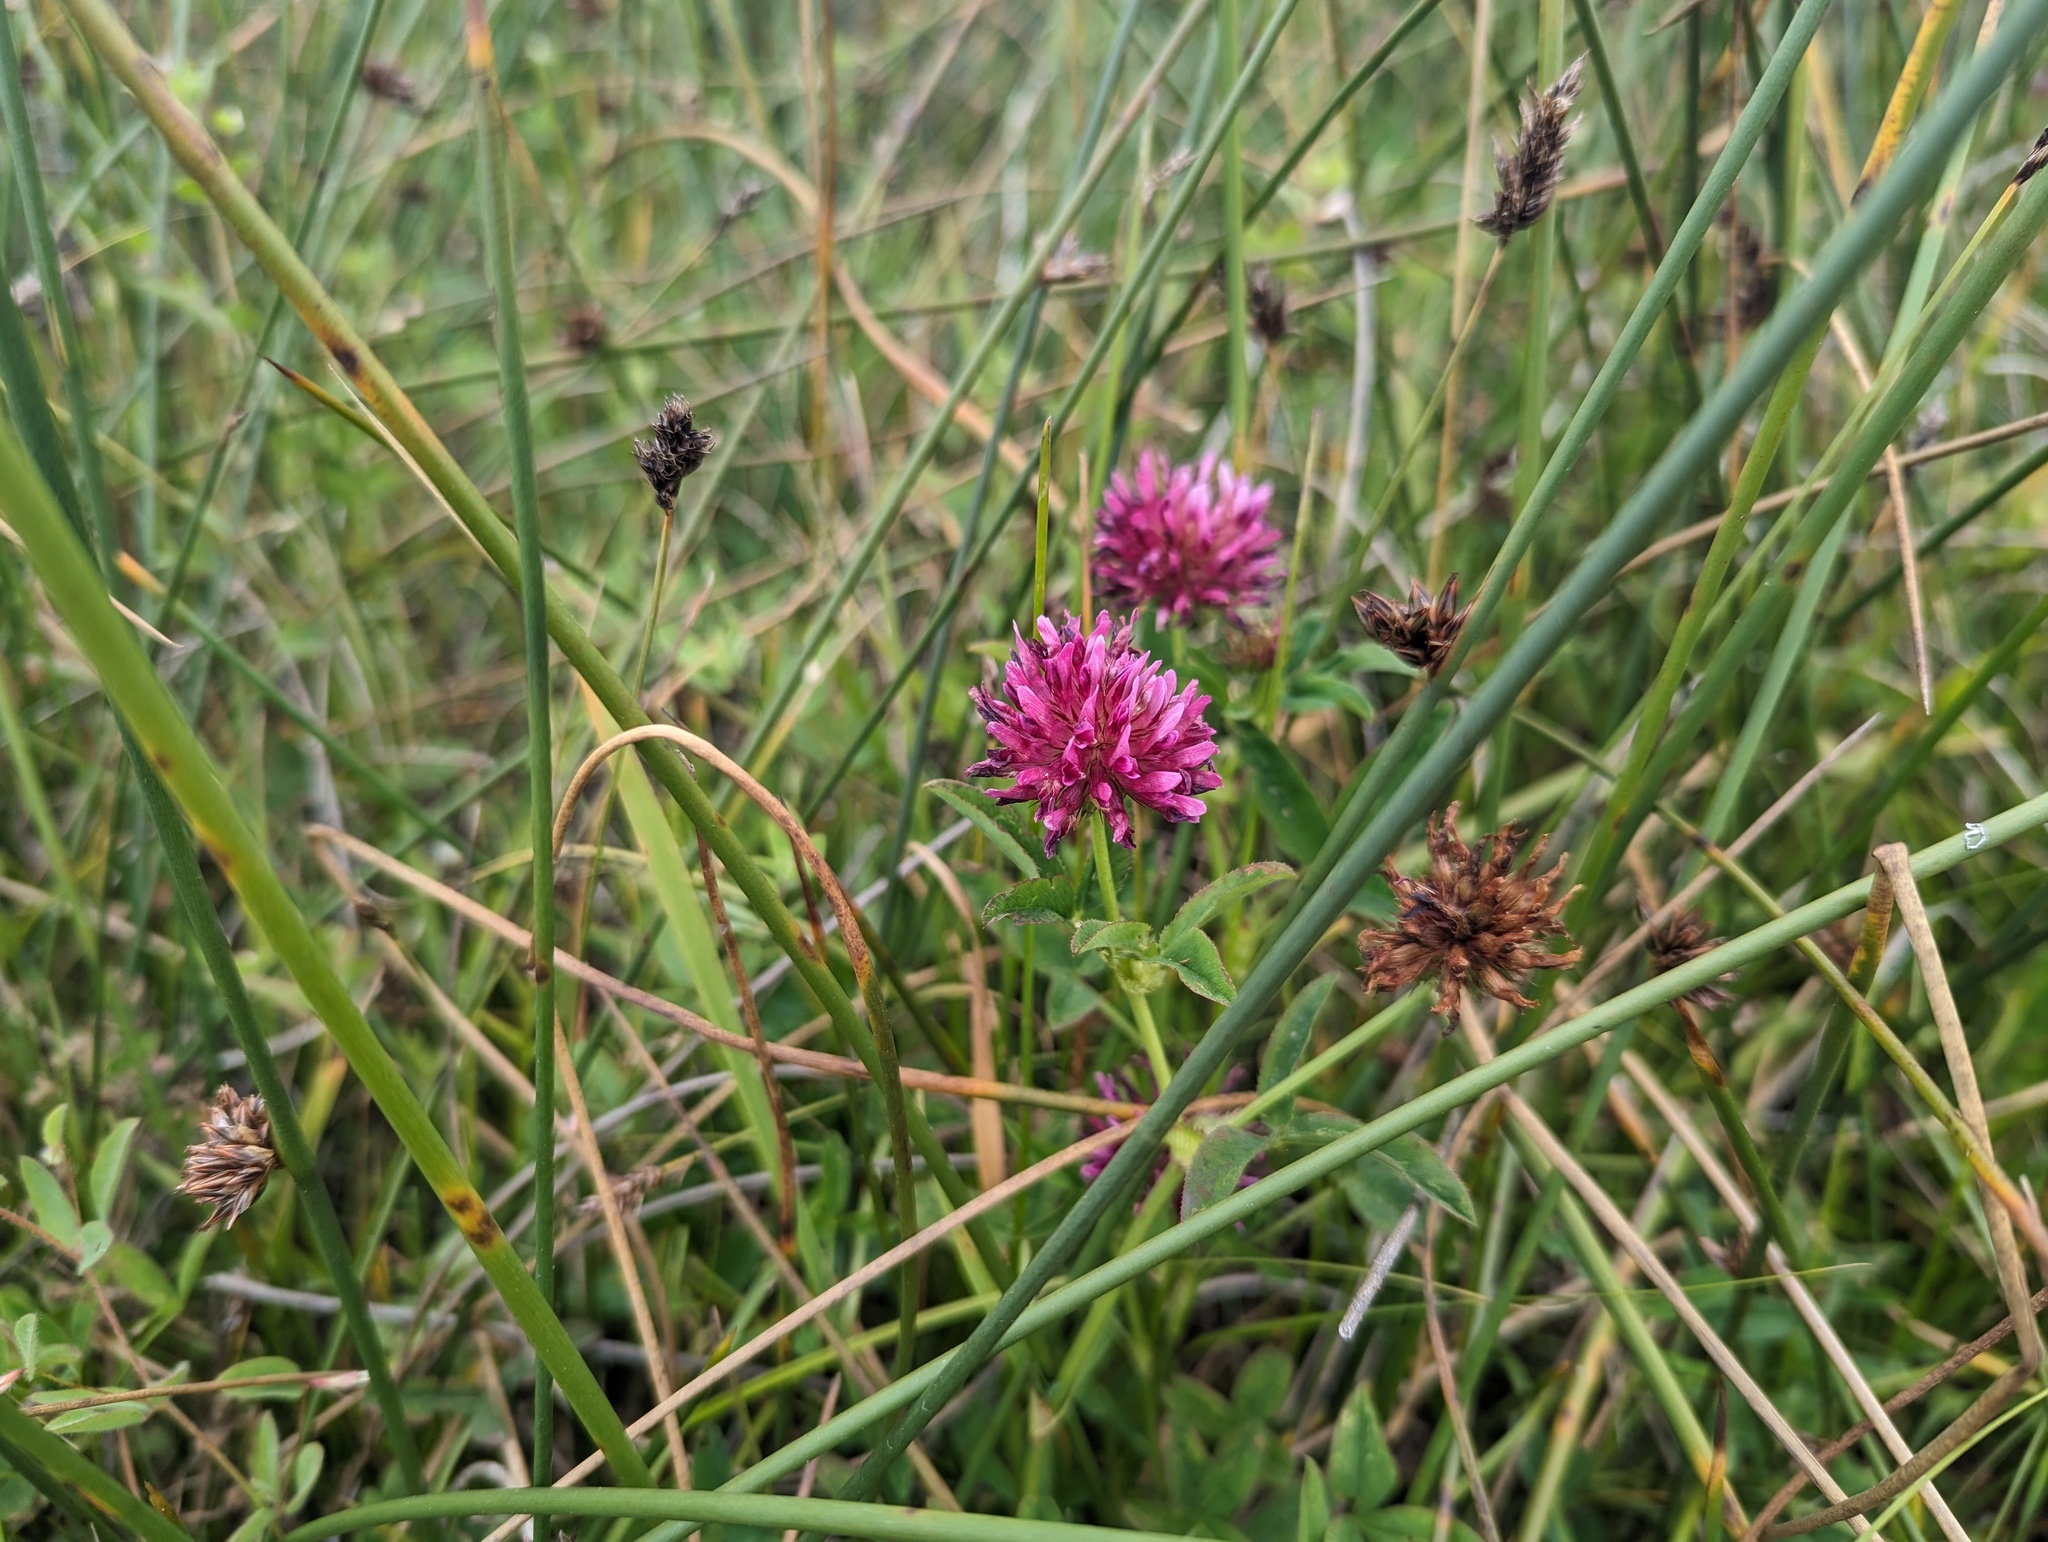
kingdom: Plantae
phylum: Tracheophyta
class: Magnoliopsida
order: Fabales
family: Fabaceae
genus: Trifolium
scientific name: Trifolium wormskioldii
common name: Springbank clover
